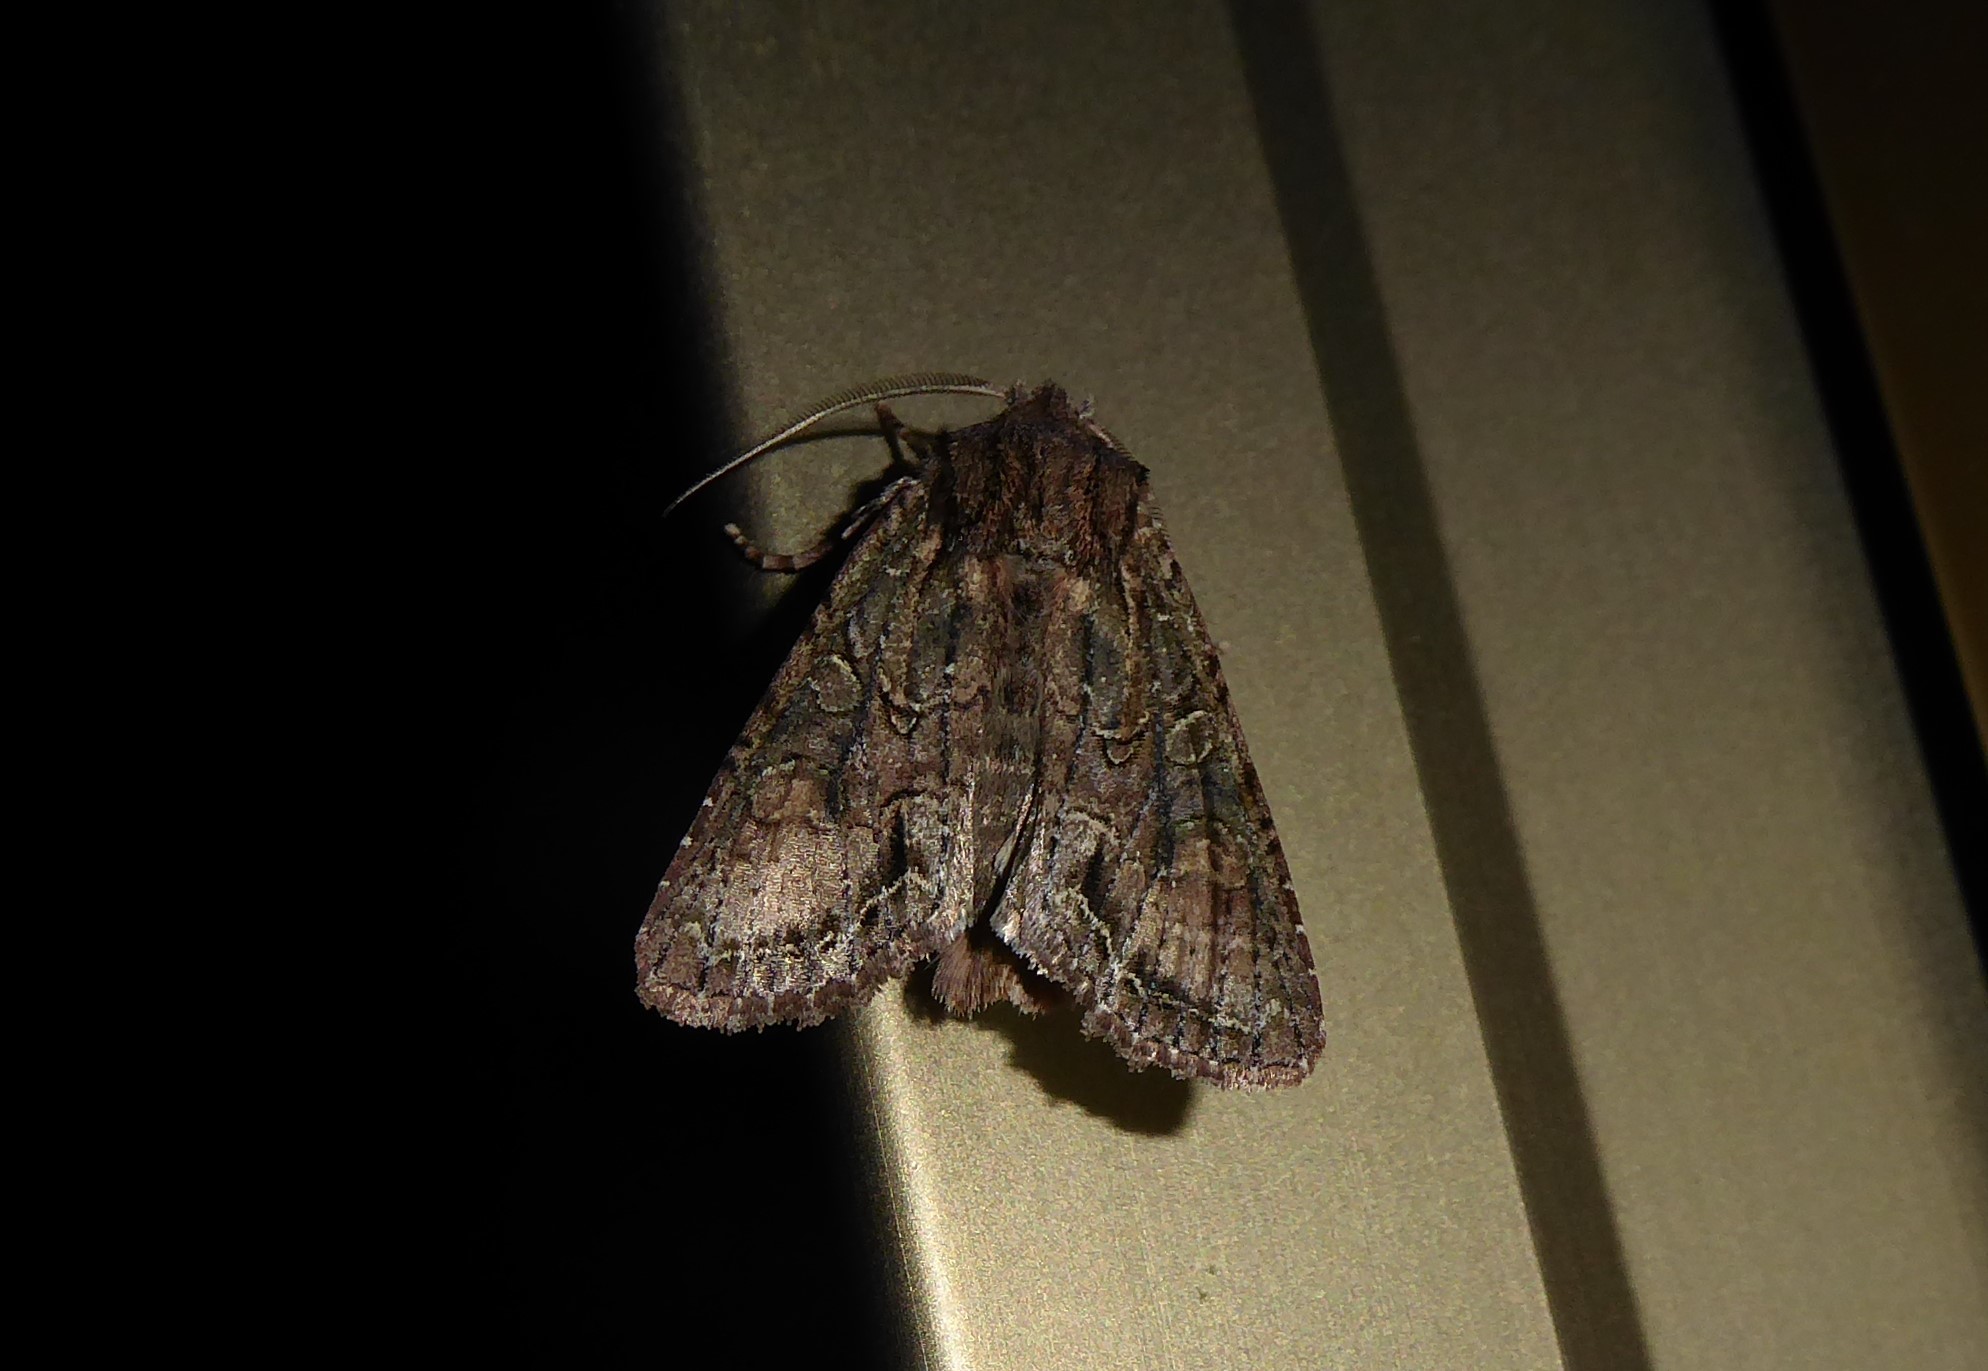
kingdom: Animalia
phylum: Arthropoda
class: Insecta
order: Lepidoptera
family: Noctuidae
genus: Ichneutica
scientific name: Ichneutica mutans
